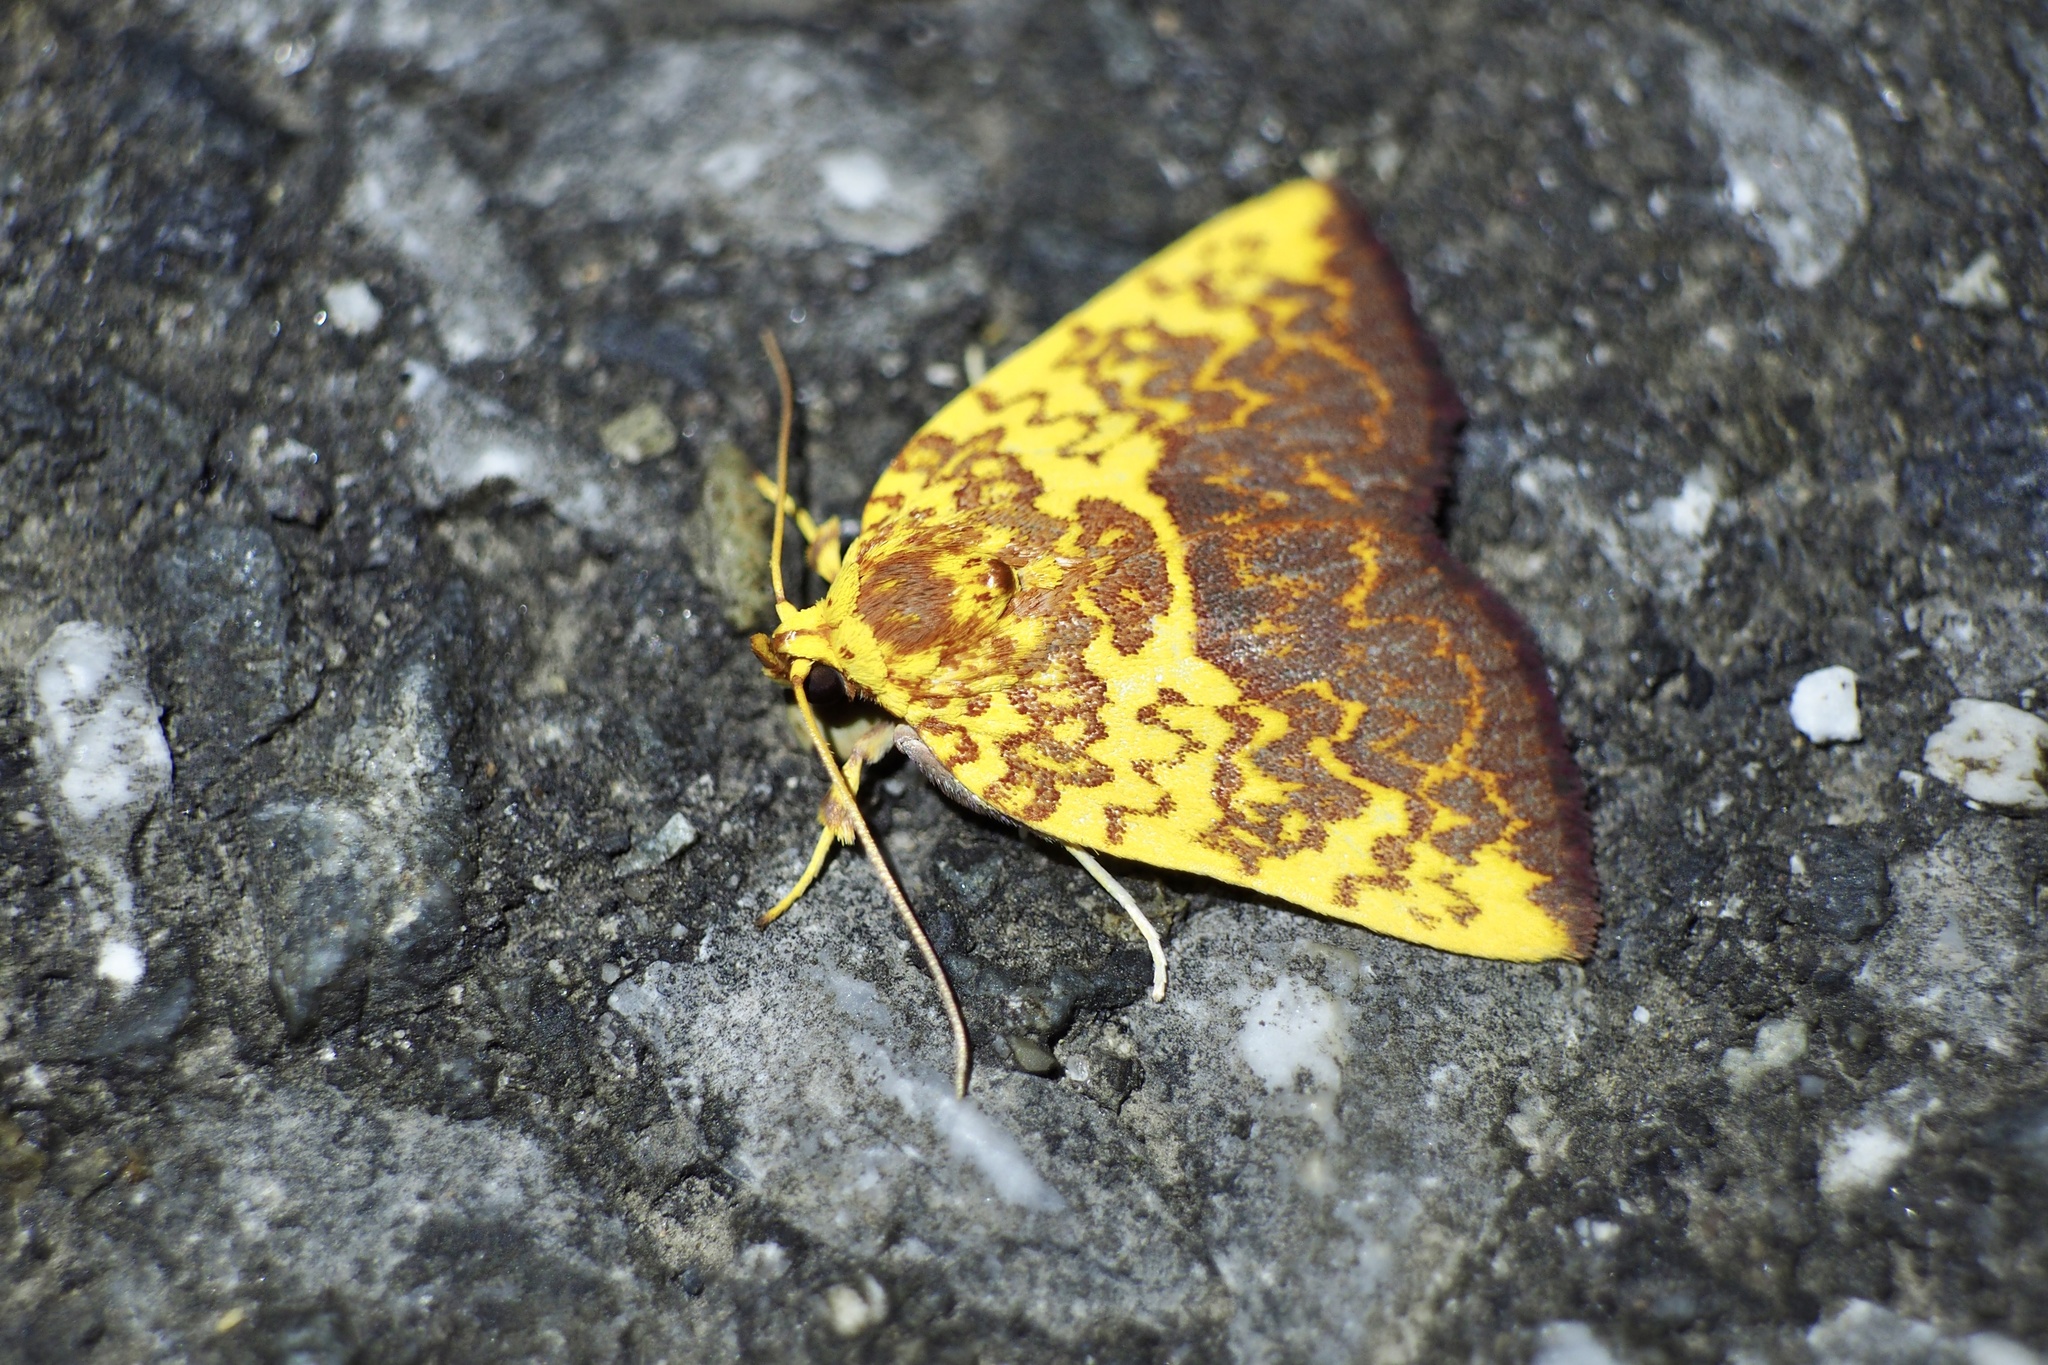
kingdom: Animalia
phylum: Arthropoda
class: Insecta
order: Lepidoptera
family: Nolidae
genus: Siglophora
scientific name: Siglophora ferreilutea
